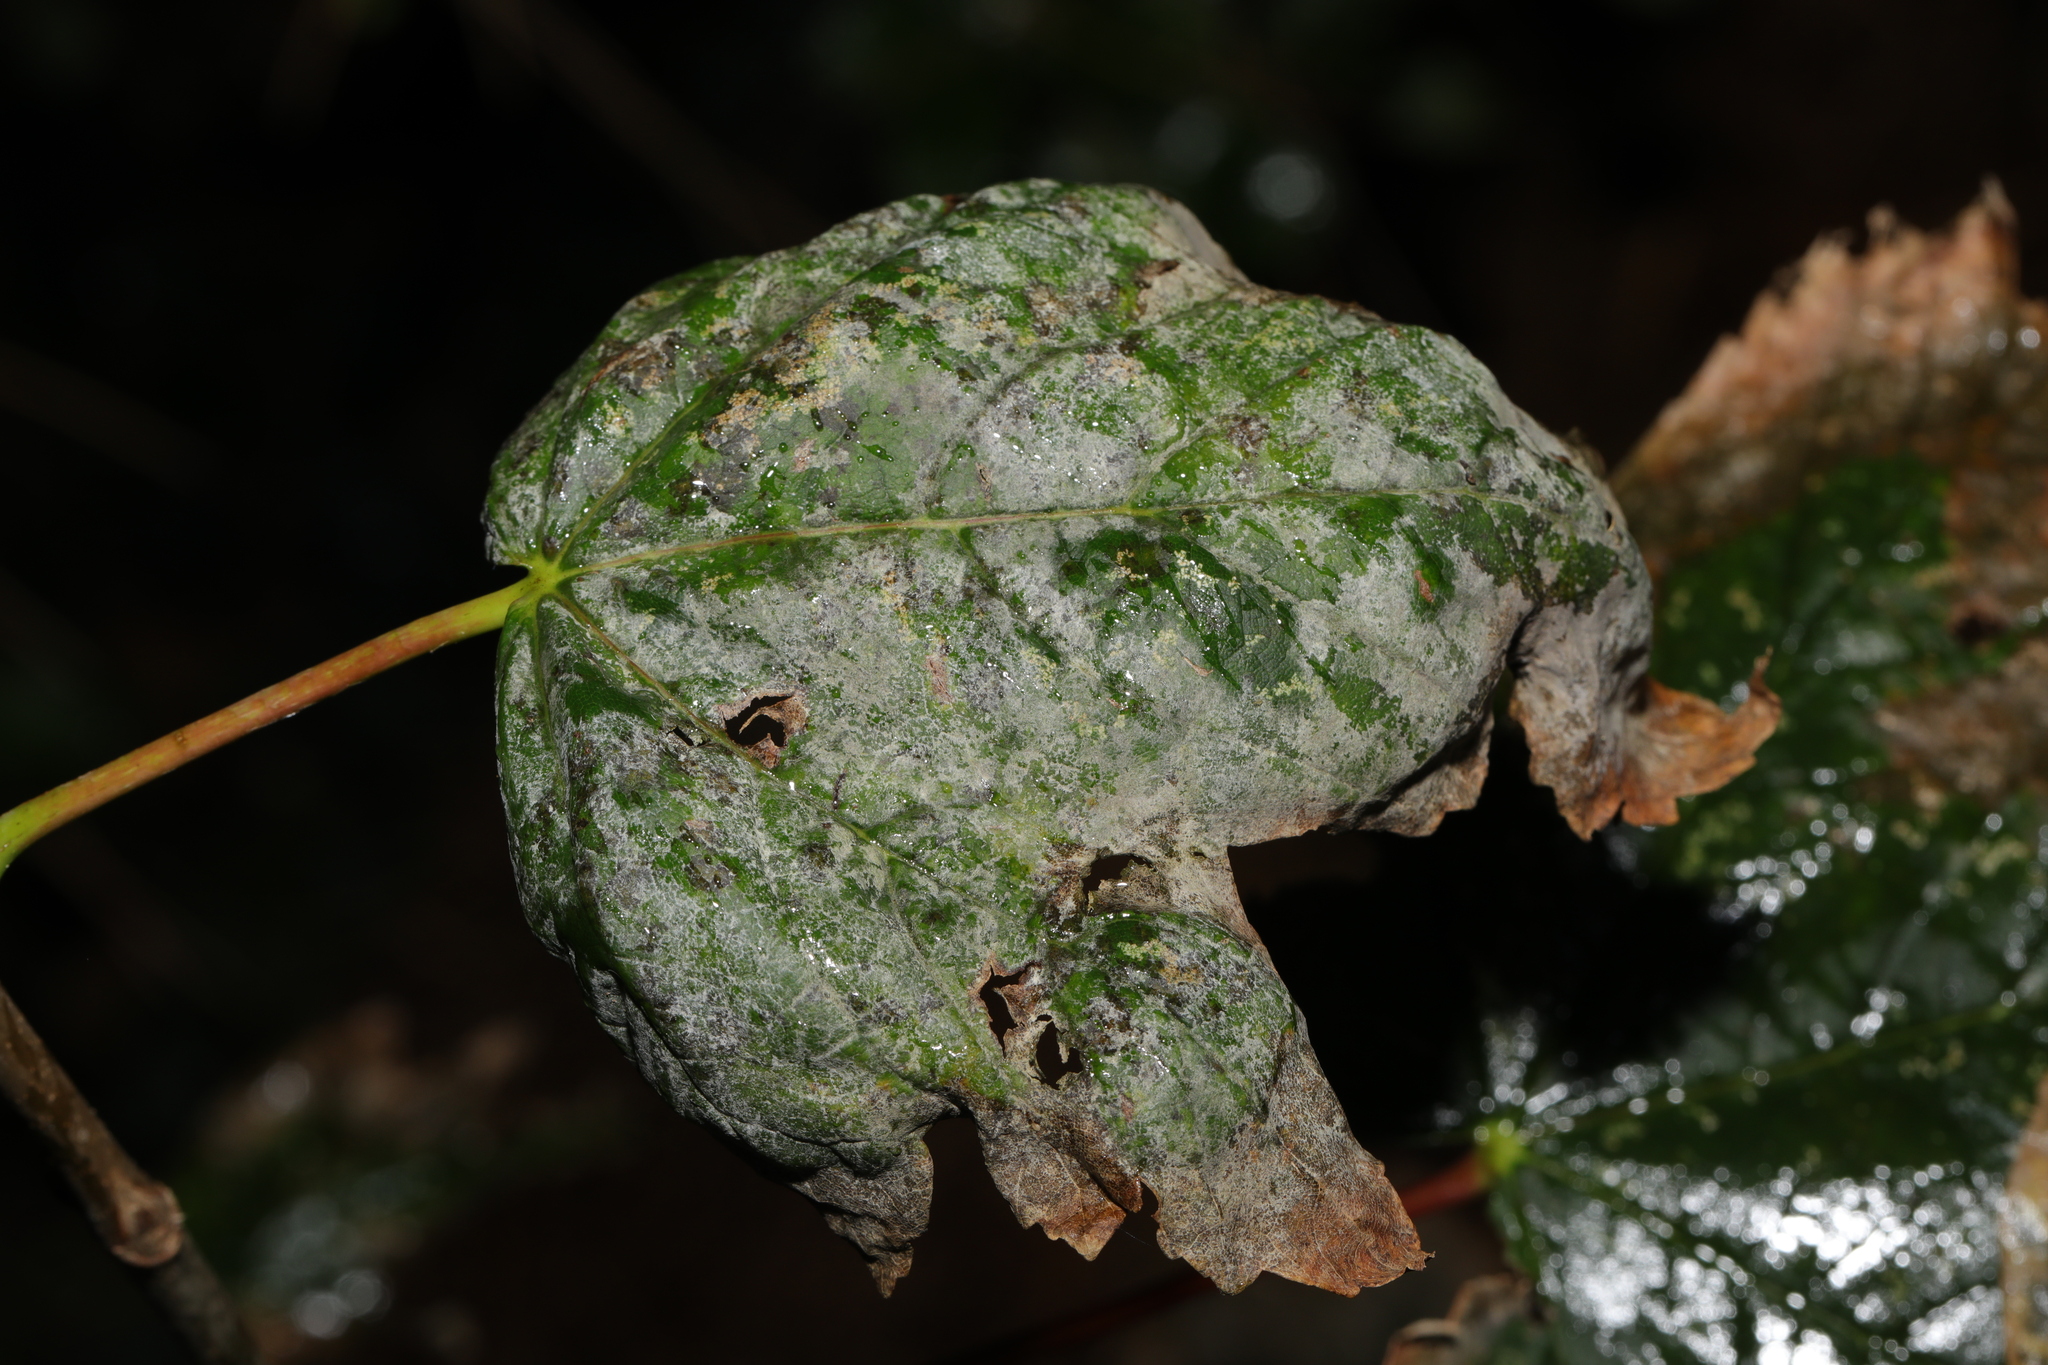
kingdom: Fungi
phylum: Ascomycota
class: Leotiomycetes
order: Helotiales
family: Erysiphaceae
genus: Sawadaea
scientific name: Sawadaea bicornis
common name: Maple mildew
